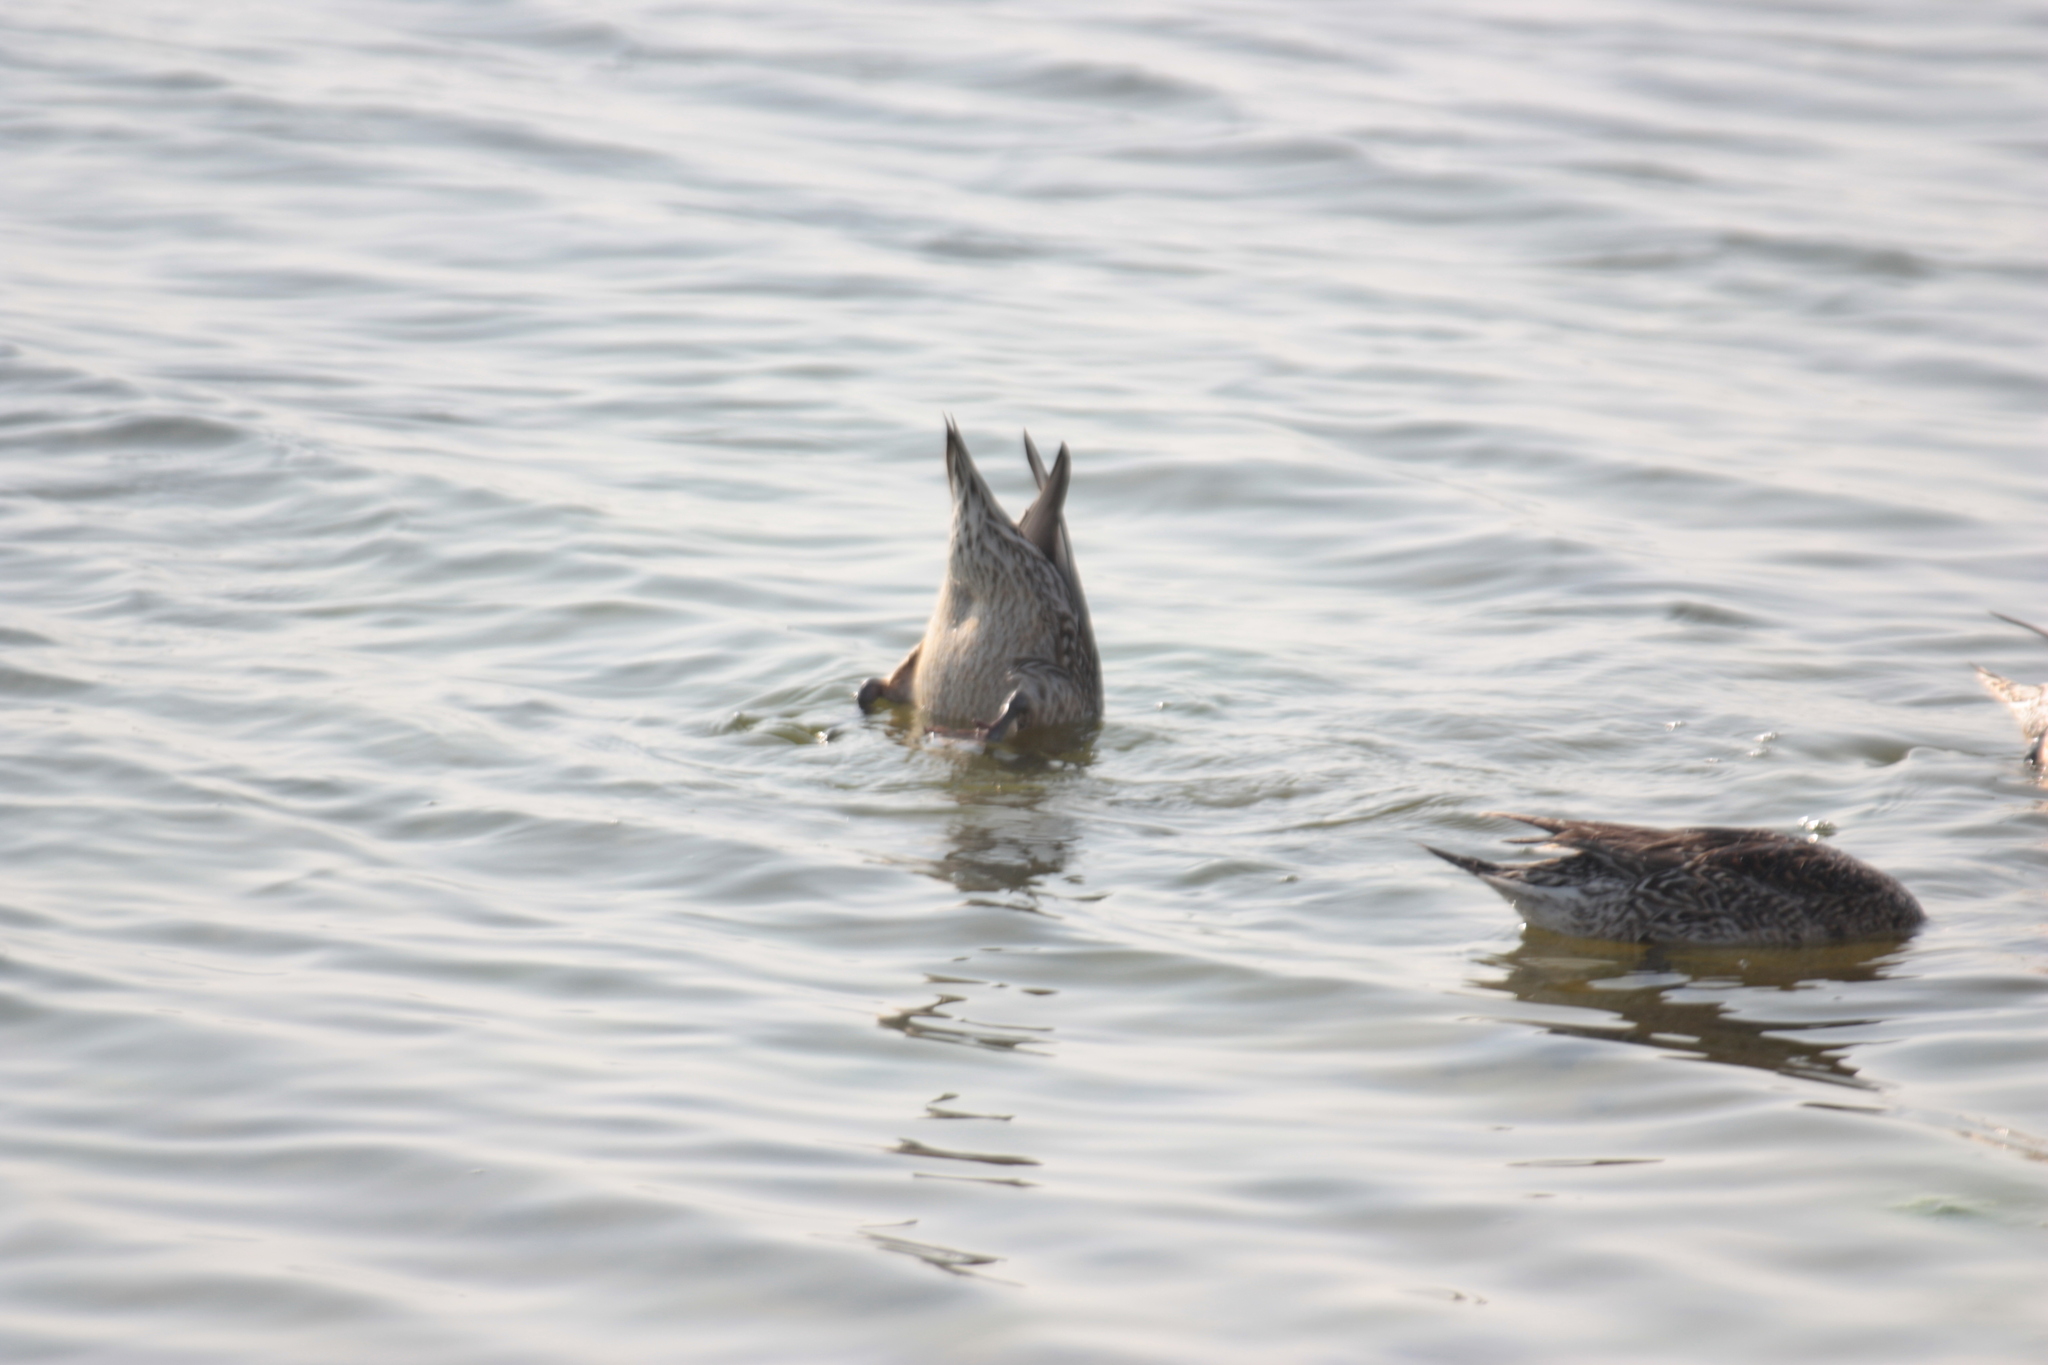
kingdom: Animalia
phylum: Chordata
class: Aves
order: Anseriformes
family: Anatidae
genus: Anas
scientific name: Anas acuta
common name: Northern pintail
